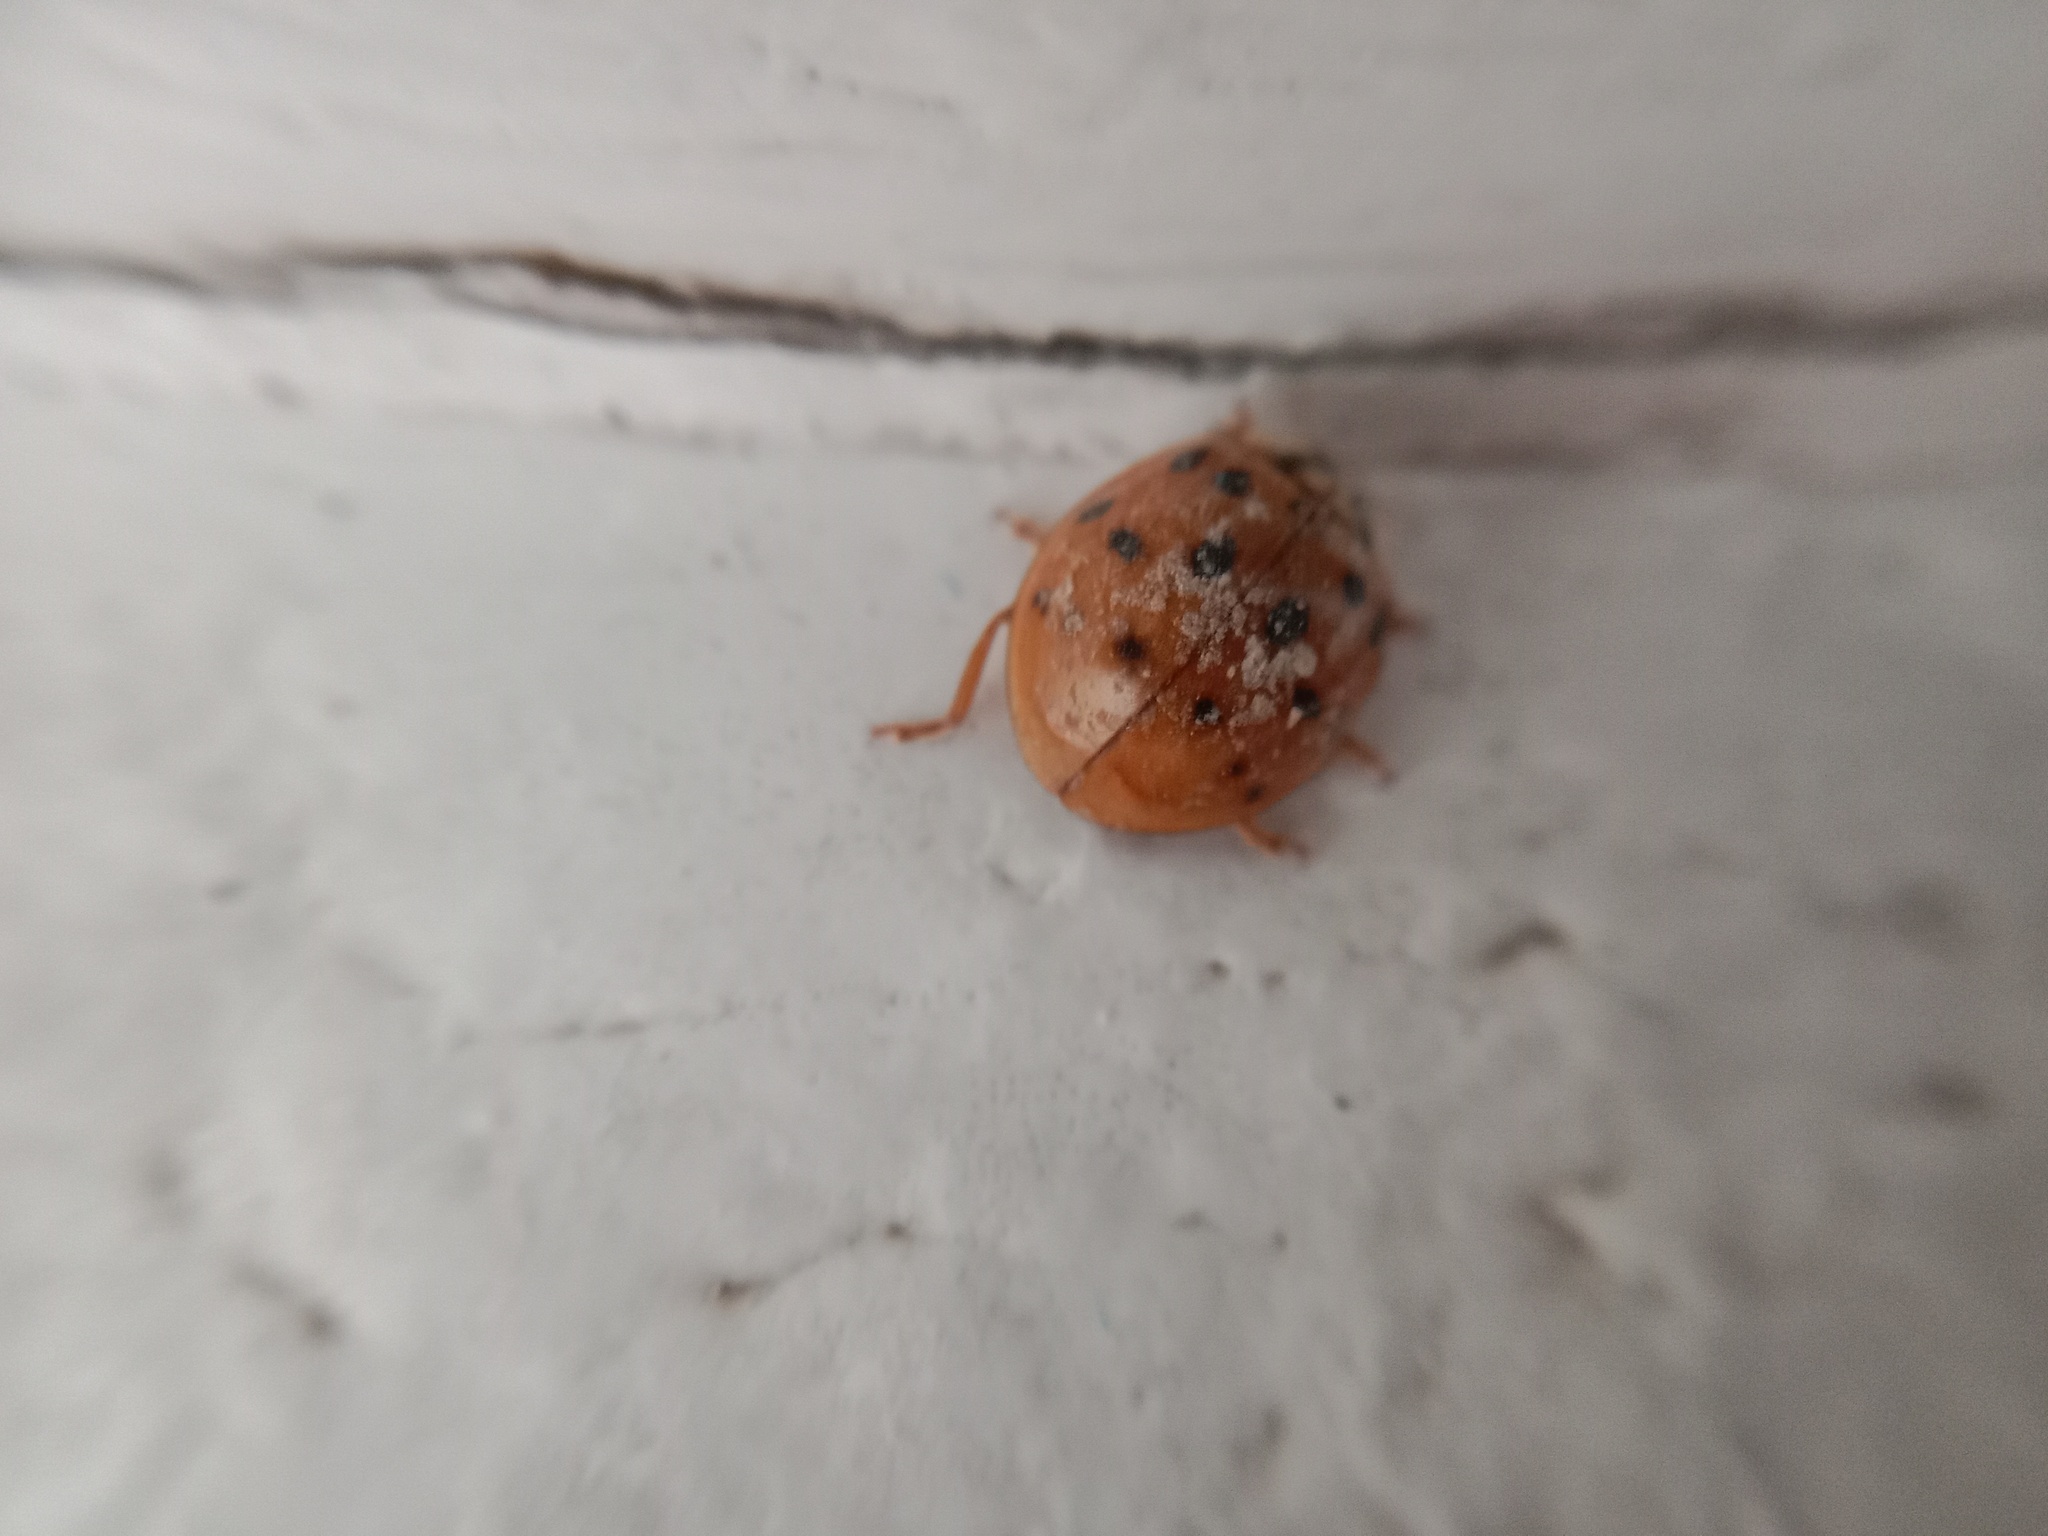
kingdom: Animalia
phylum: Arthropoda
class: Insecta
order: Coleoptera
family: Coccinellidae
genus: Harmonia
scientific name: Harmonia axyridis
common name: Harlequin ladybird
